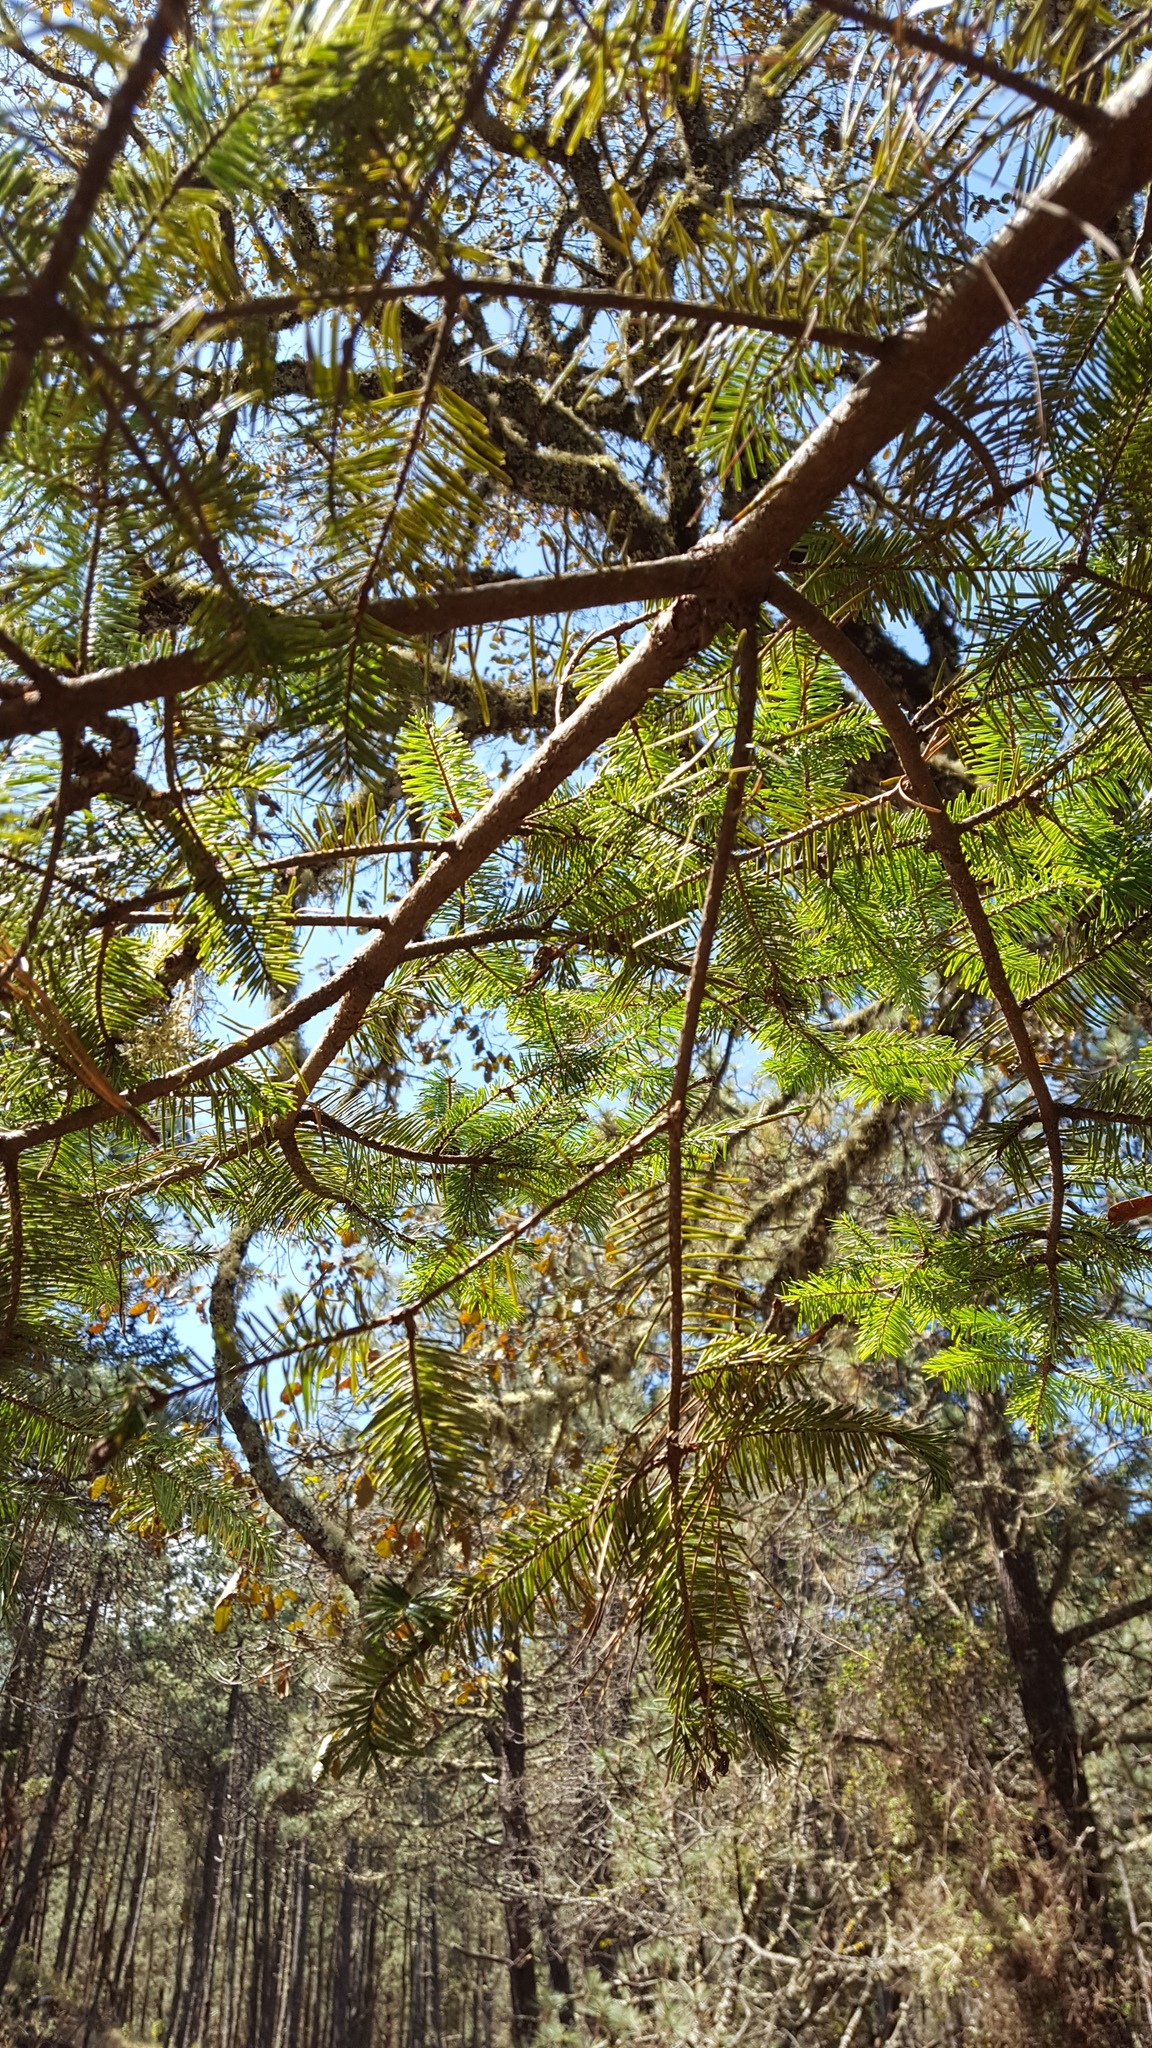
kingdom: Plantae
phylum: Tracheophyta
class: Pinopsida
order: Pinales
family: Pinaceae
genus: Abies
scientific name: Abies hickelii
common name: Hickel's fir
